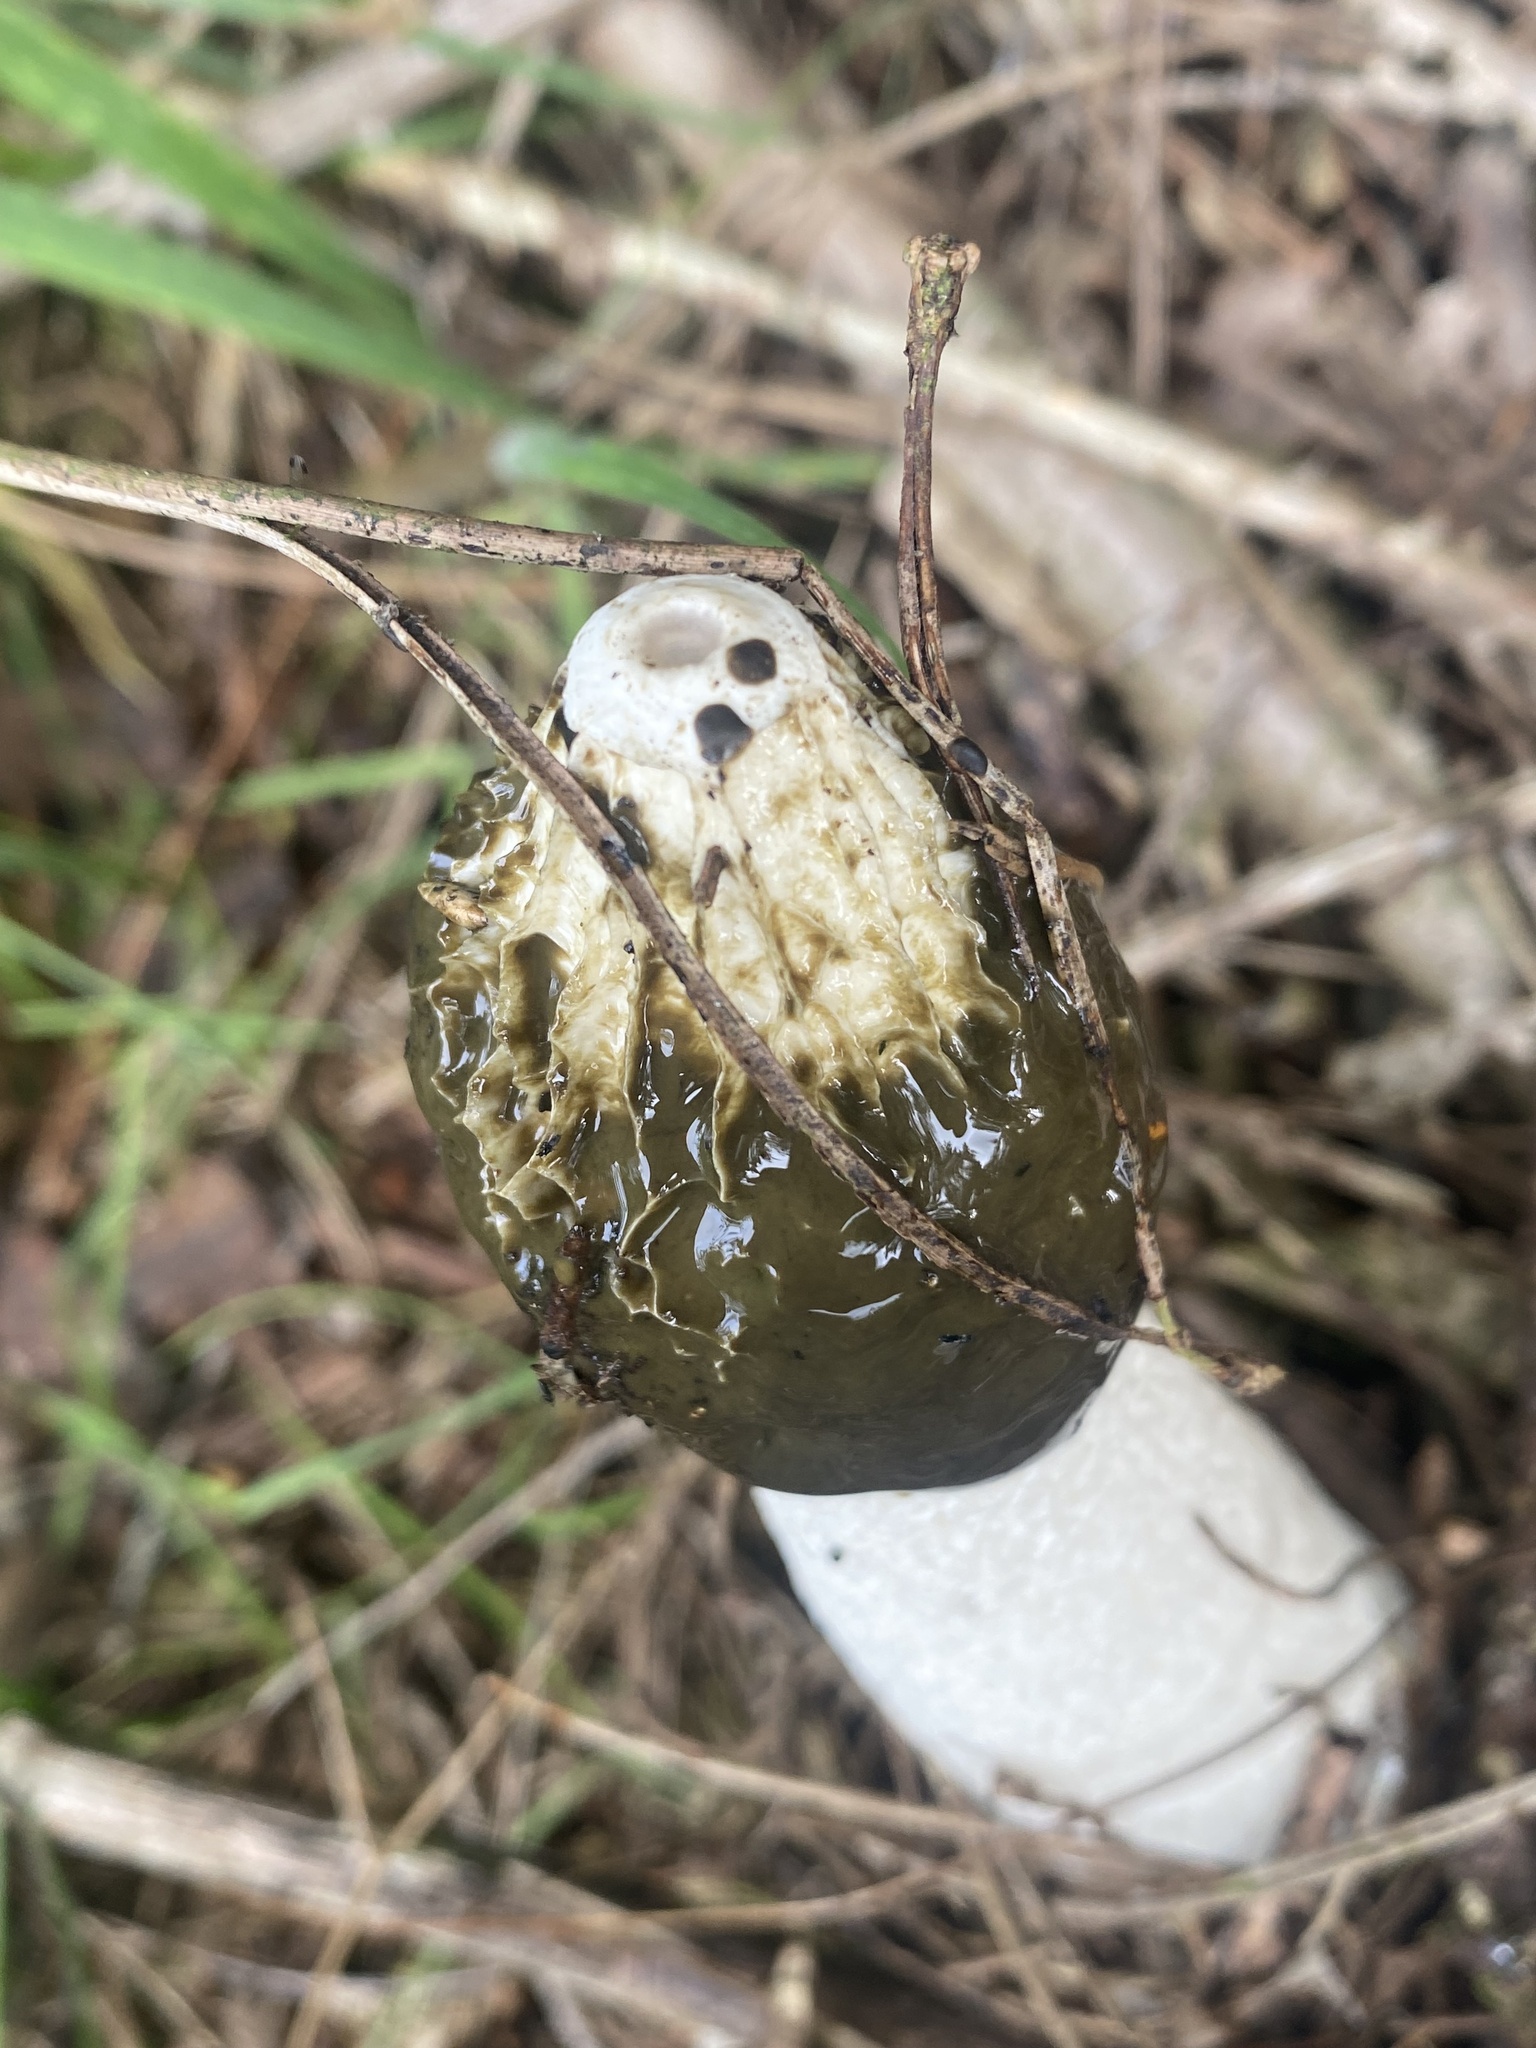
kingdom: Fungi
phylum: Basidiomycota
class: Agaricomycetes
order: Phallales
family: Phallaceae
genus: Phallus
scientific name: Phallus impudicus
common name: Common stinkhorn
